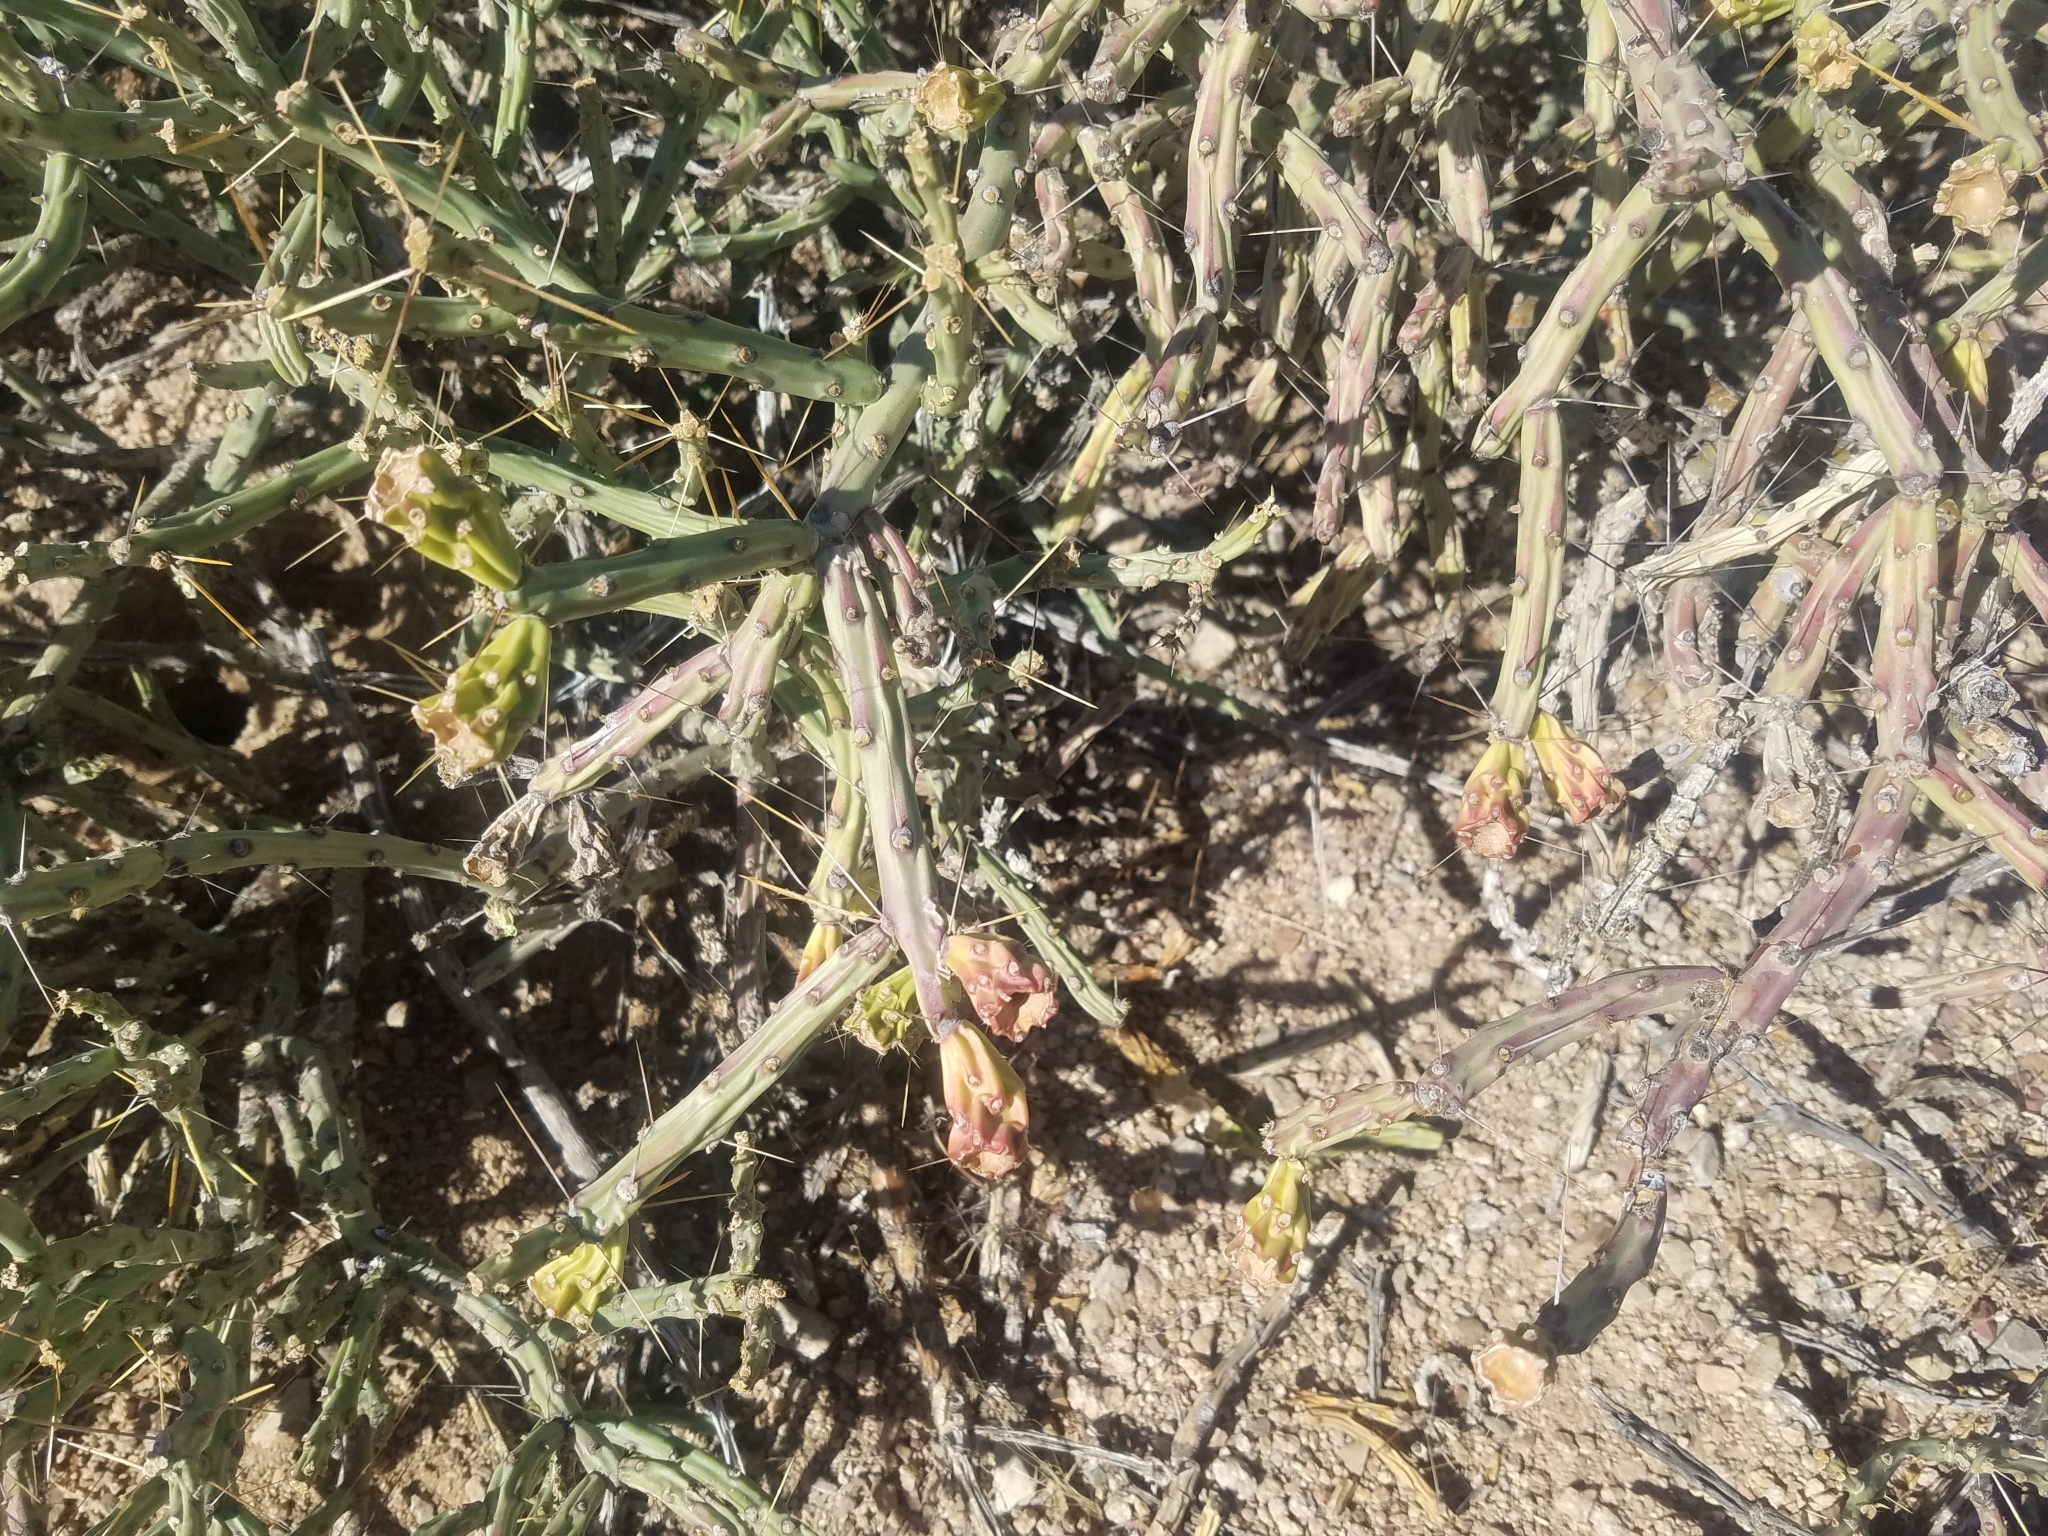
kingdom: Plantae
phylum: Tracheophyta
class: Magnoliopsida
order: Caryophyllales
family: Cactaceae
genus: Cylindropuntia
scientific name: Cylindropuntia arbuscula
